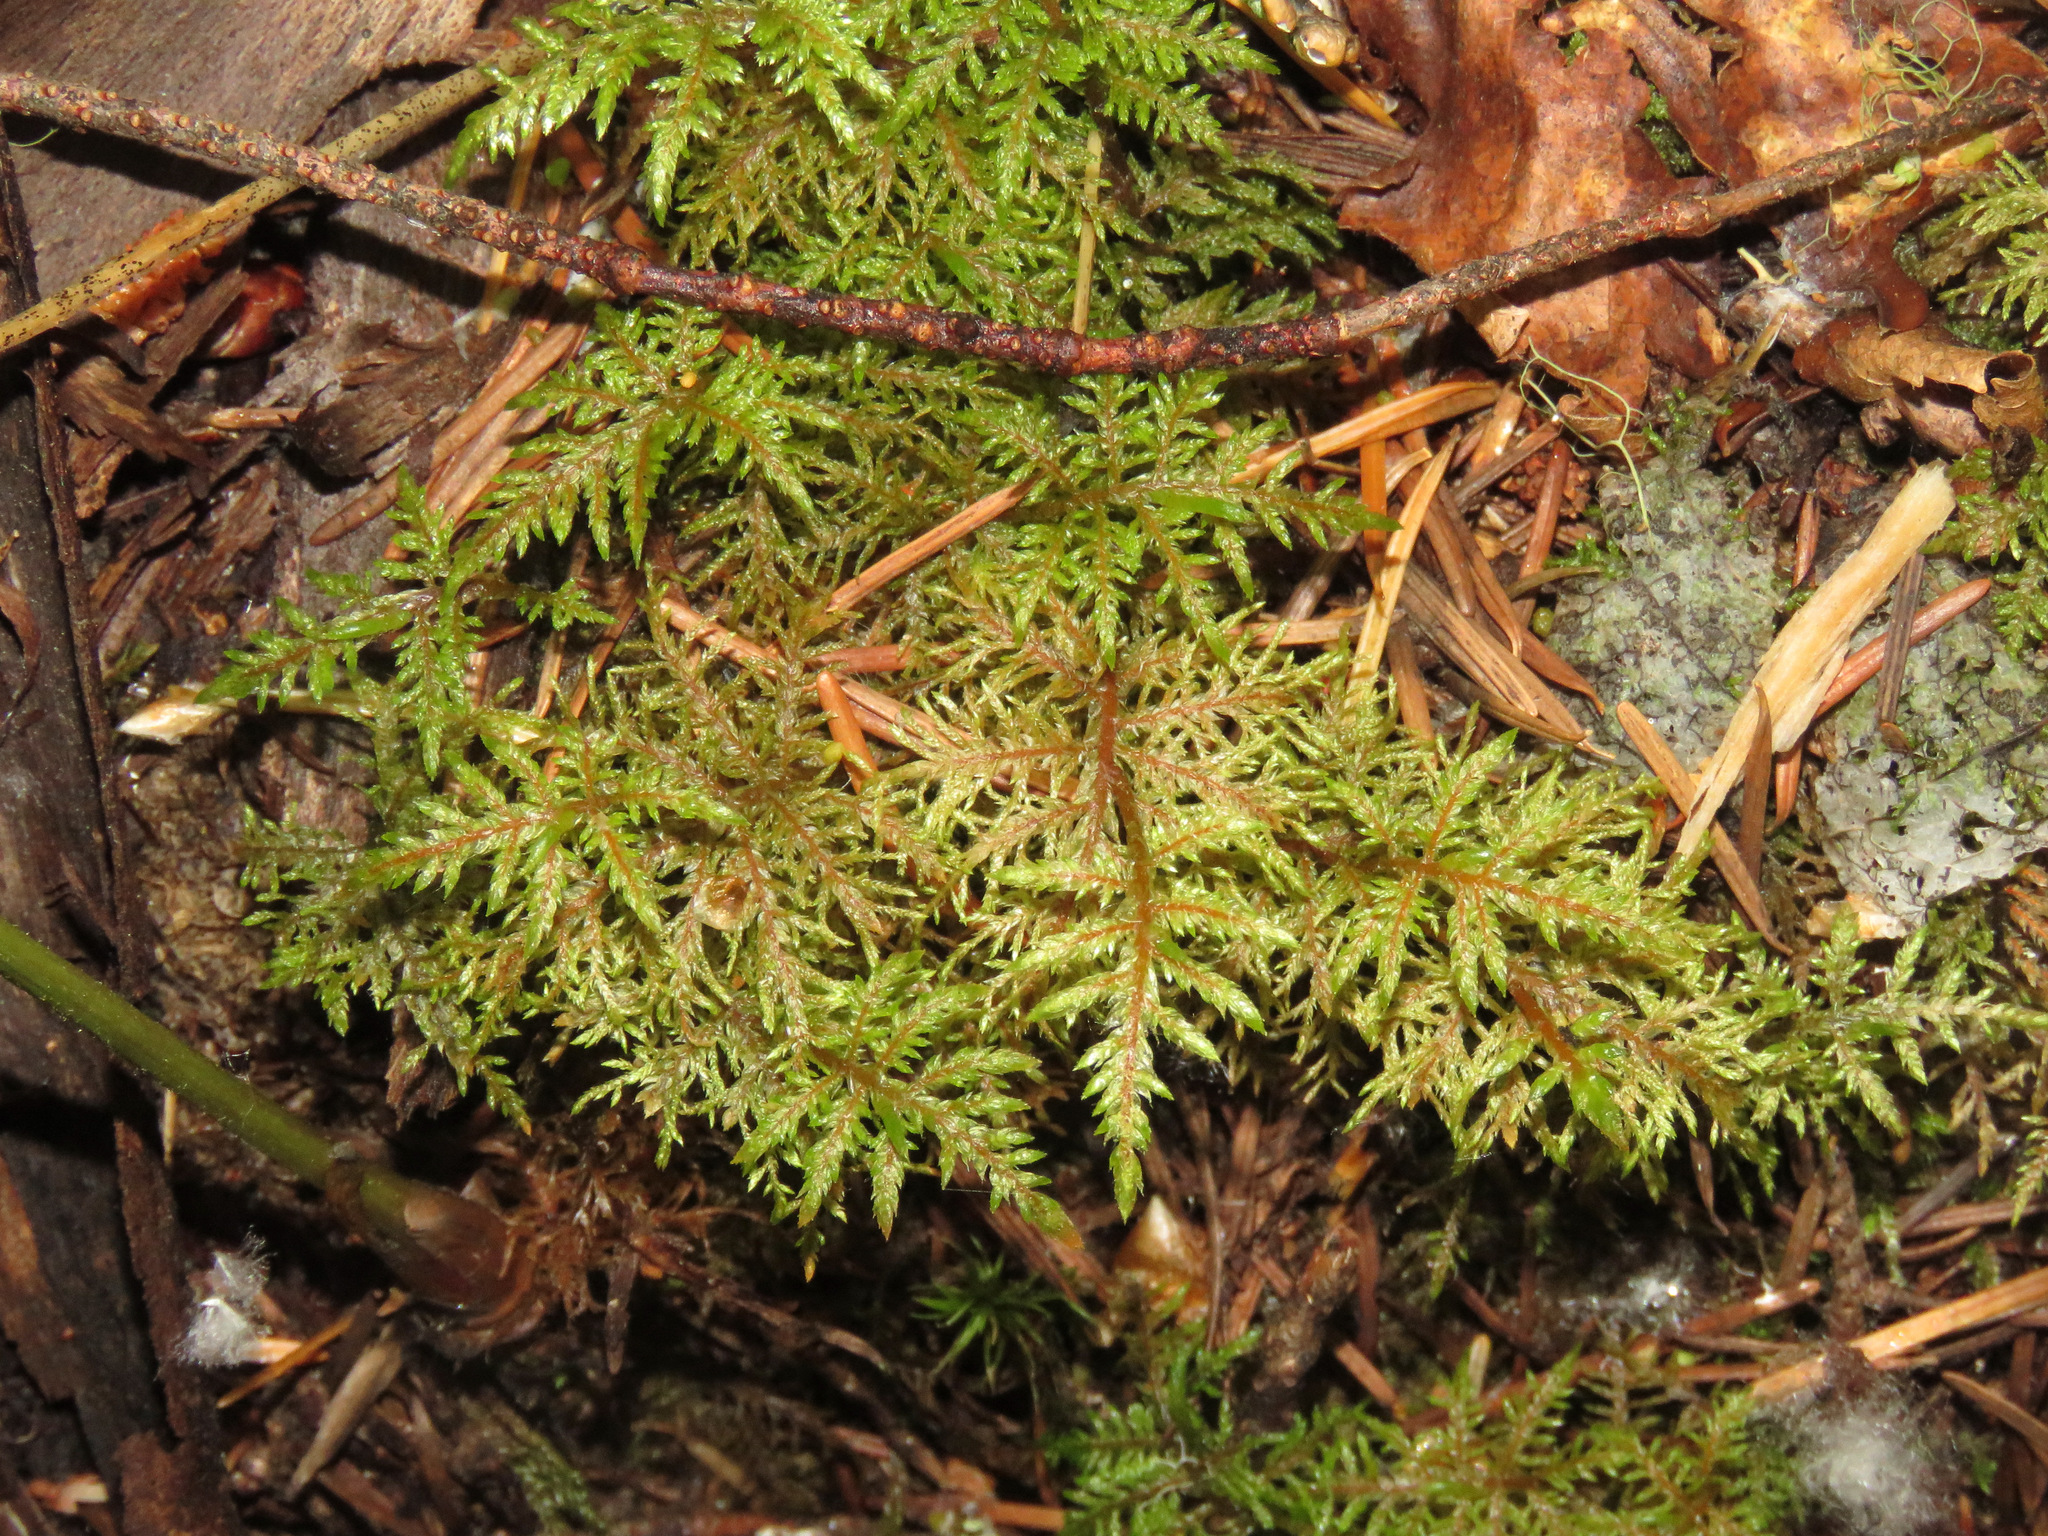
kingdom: Plantae
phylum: Bryophyta
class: Bryopsida
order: Hypnales
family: Hylocomiaceae
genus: Hylocomium
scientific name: Hylocomium splendens
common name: Stairstep moss
